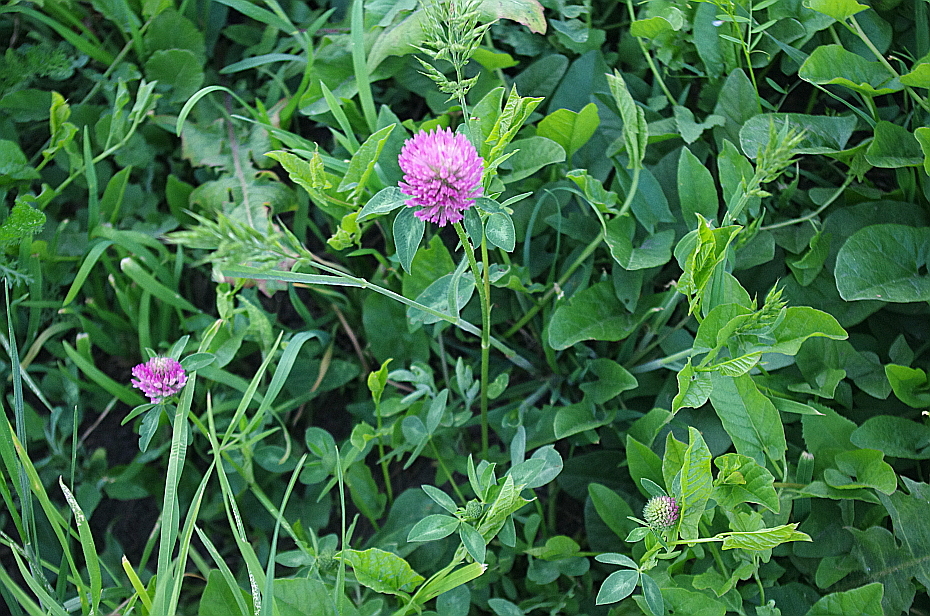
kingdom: Plantae
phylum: Tracheophyta
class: Magnoliopsida
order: Fabales
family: Fabaceae
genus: Trifolium
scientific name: Trifolium pratense
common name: Red clover
